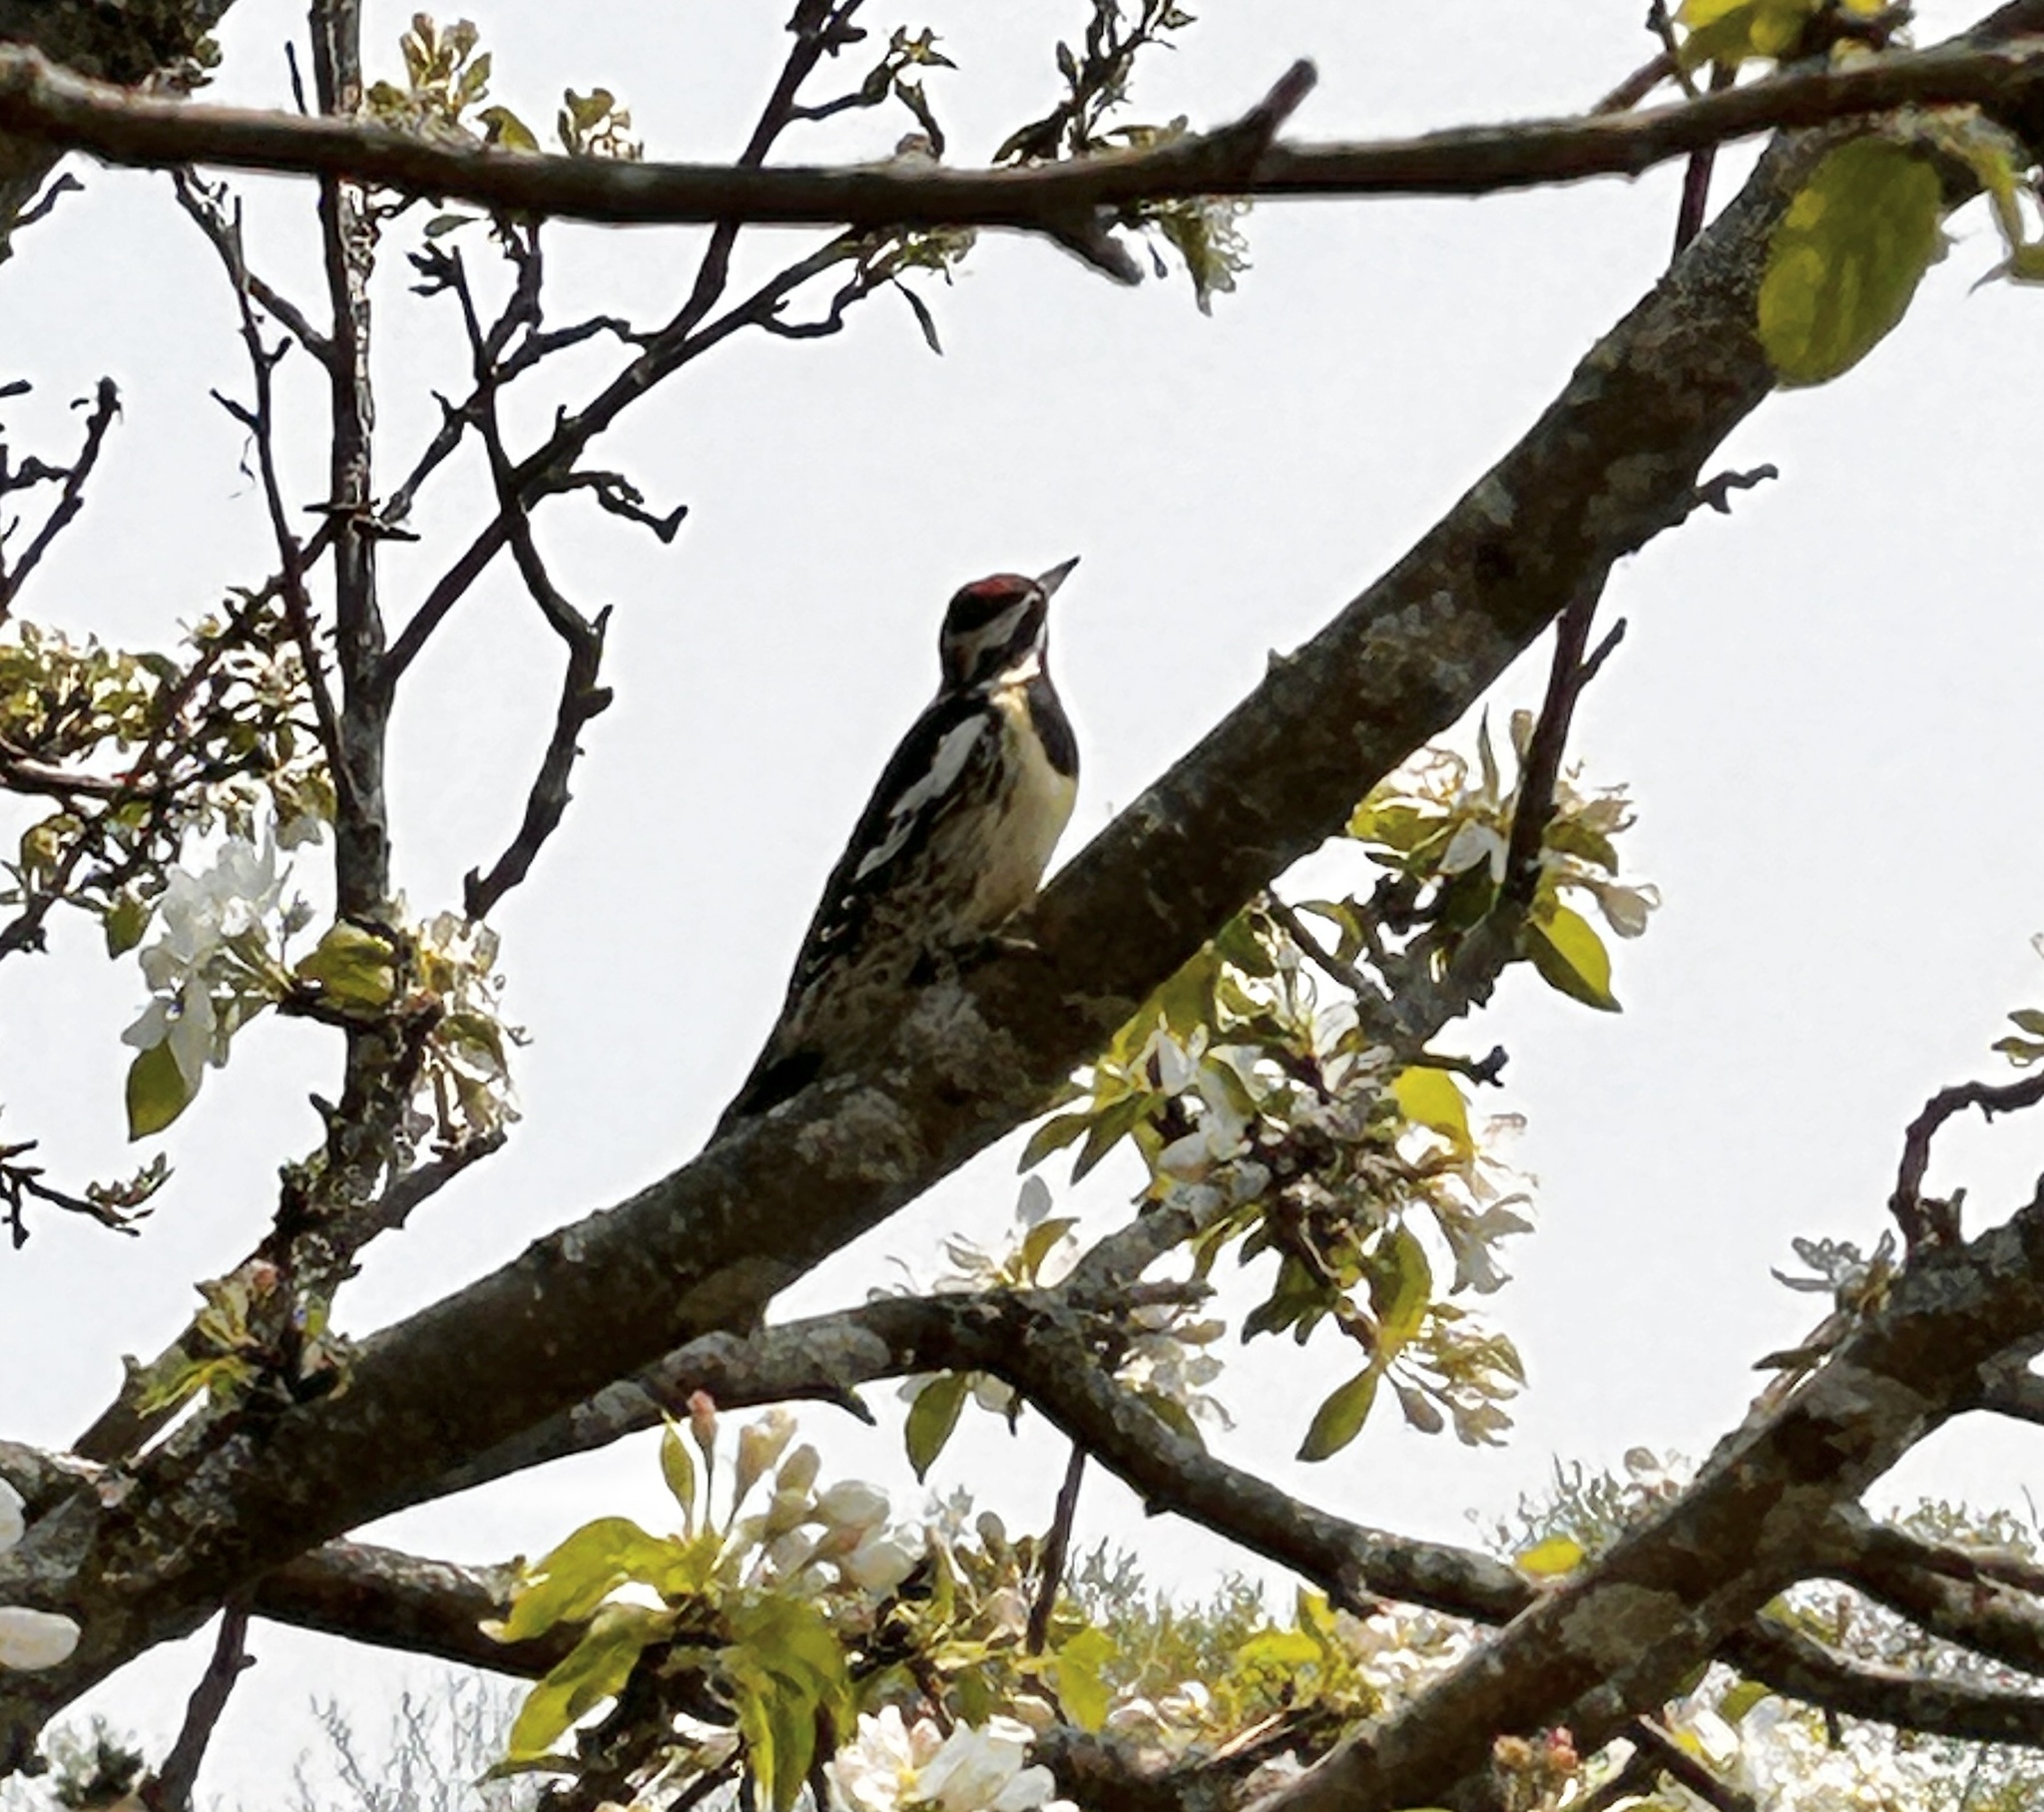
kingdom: Animalia
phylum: Chordata
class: Aves
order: Piciformes
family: Picidae
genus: Sphyrapicus
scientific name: Sphyrapicus varius
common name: Yellow-bellied sapsucker
